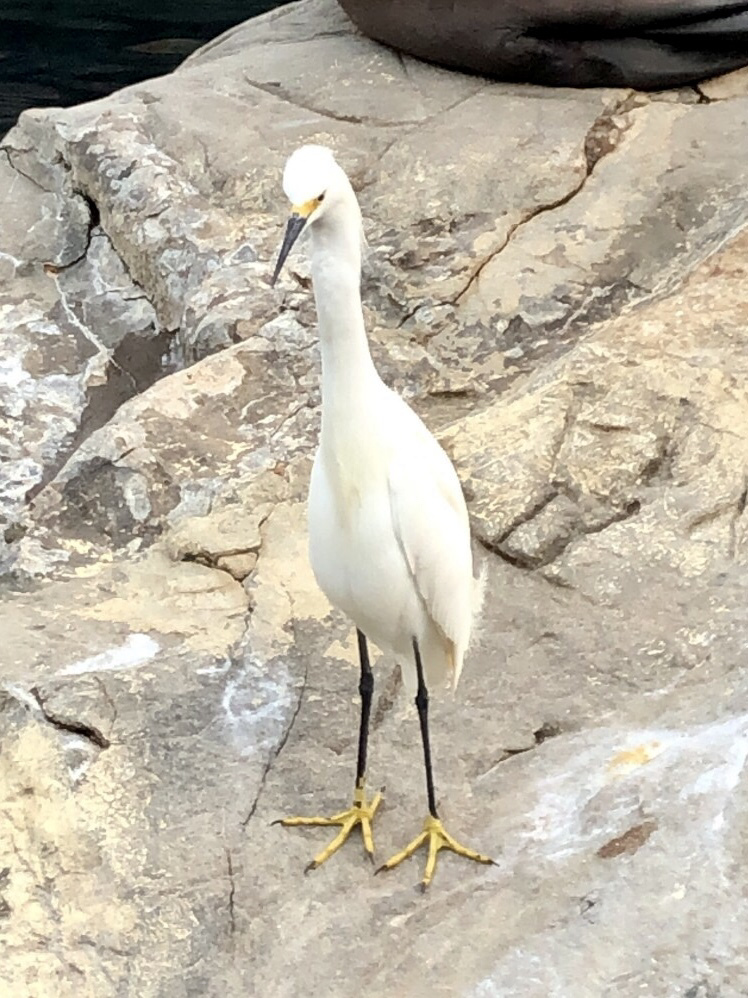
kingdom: Animalia
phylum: Chordata
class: Aves
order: Pelecaniformes
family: Ardeidae
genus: Egretta
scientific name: Egretta thula
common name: Snowy egret
